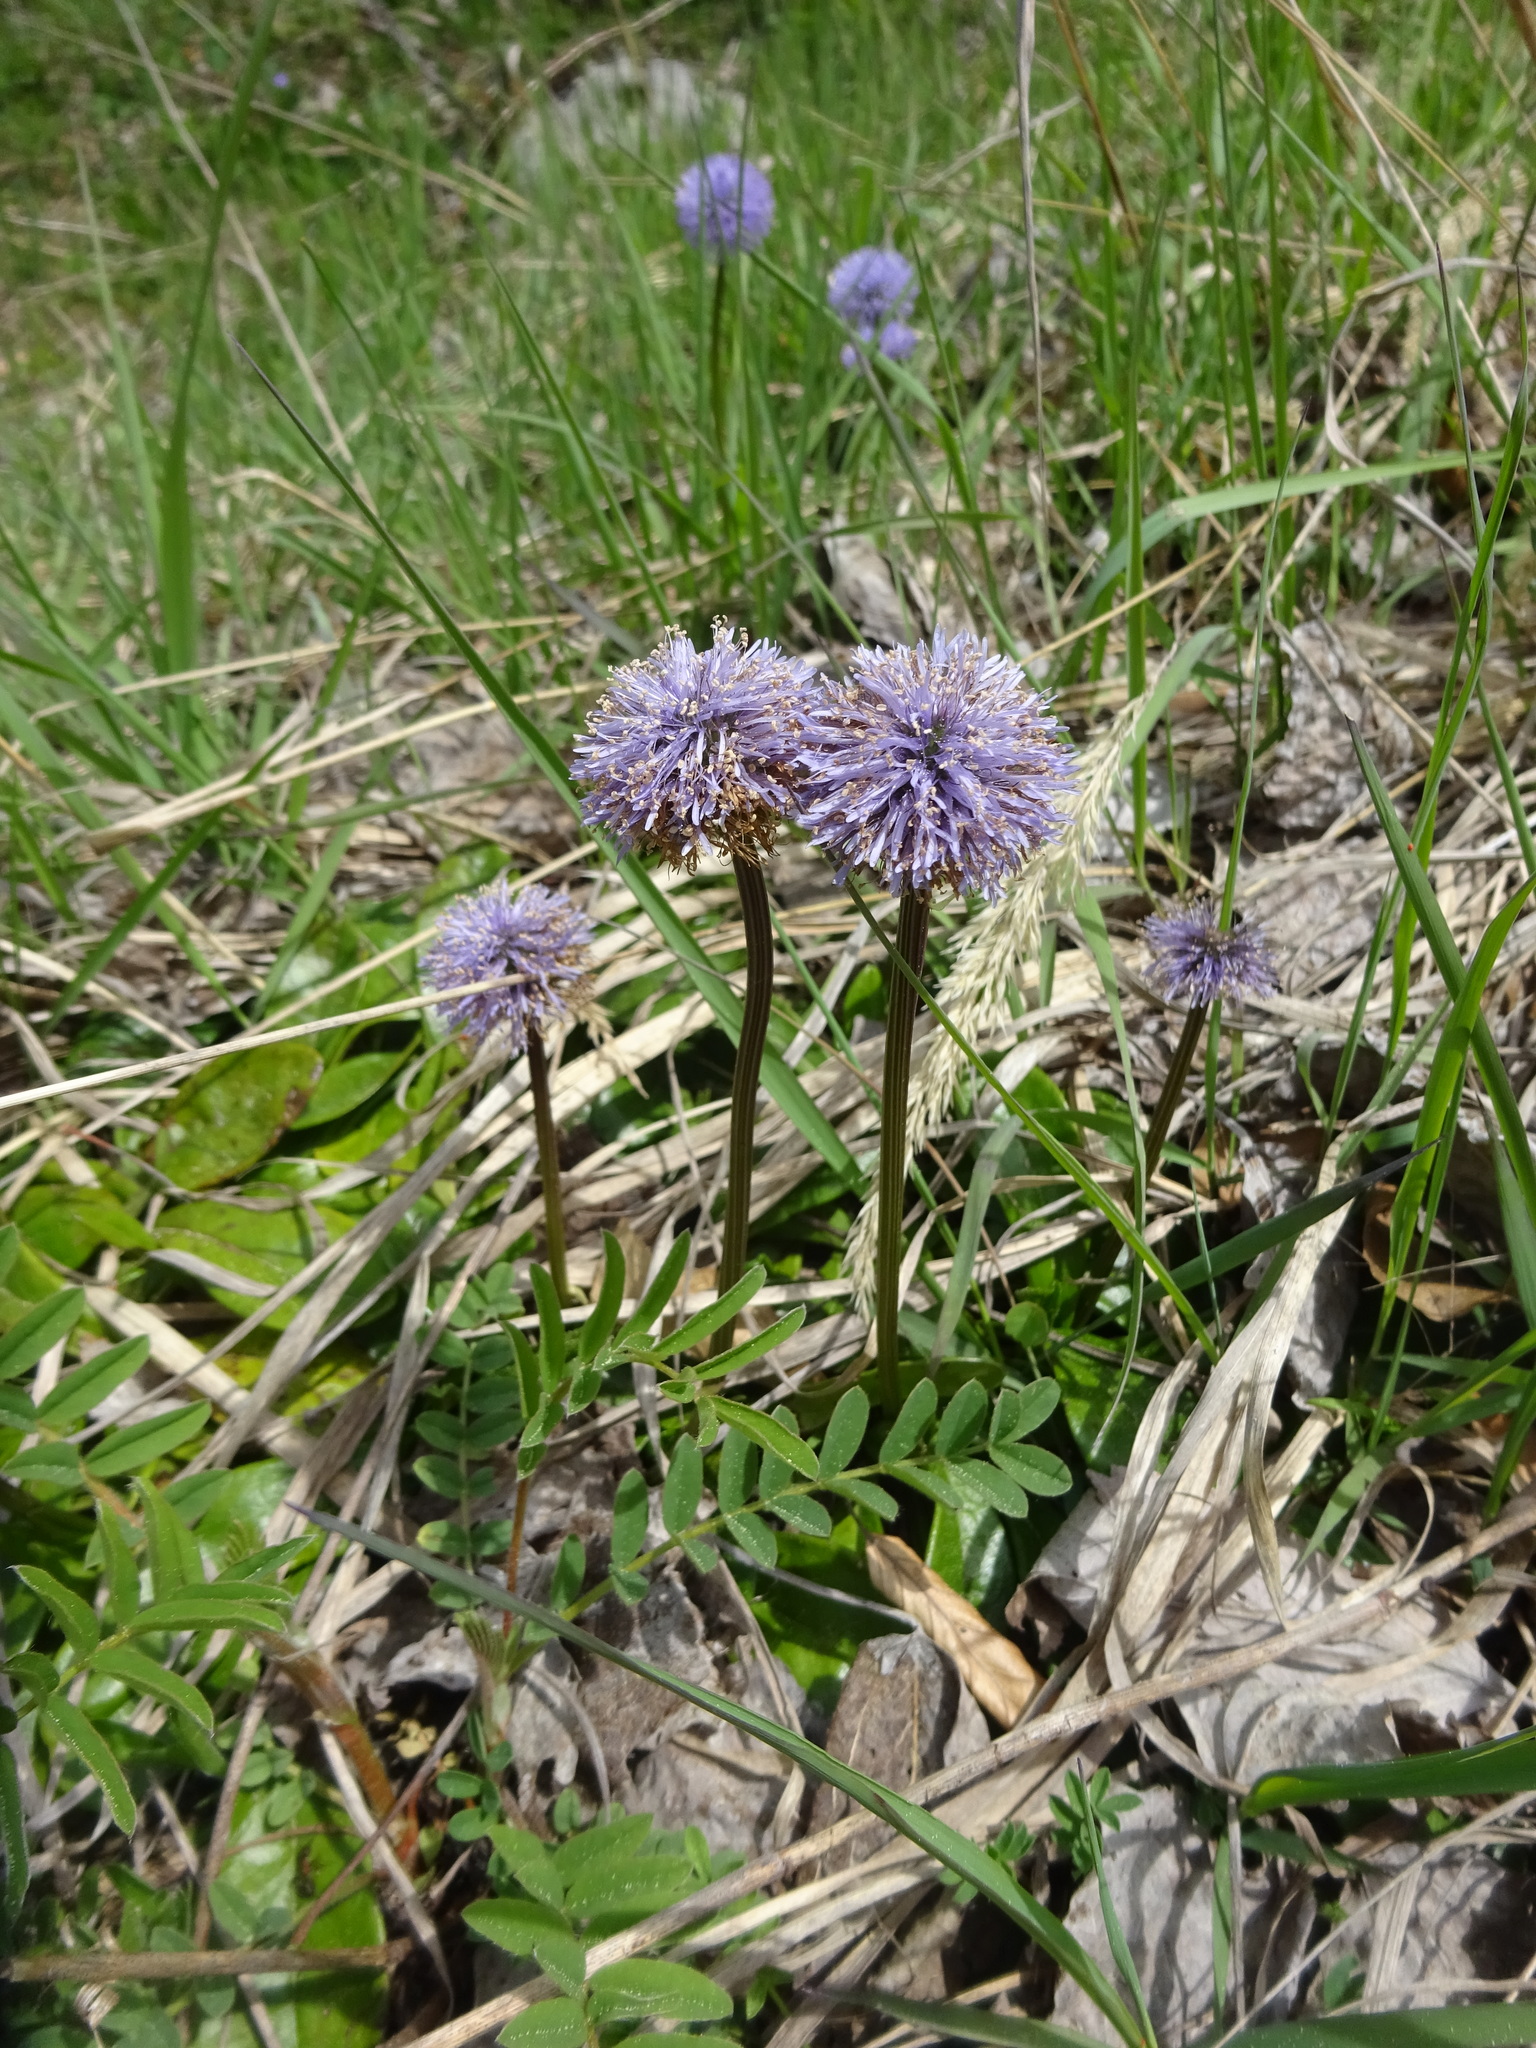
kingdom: Plantae
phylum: Tracheophyta
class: Magnoliopsida
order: Lamiales
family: Plantaginaceae
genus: Globularia
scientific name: Globularia nudicaulis
